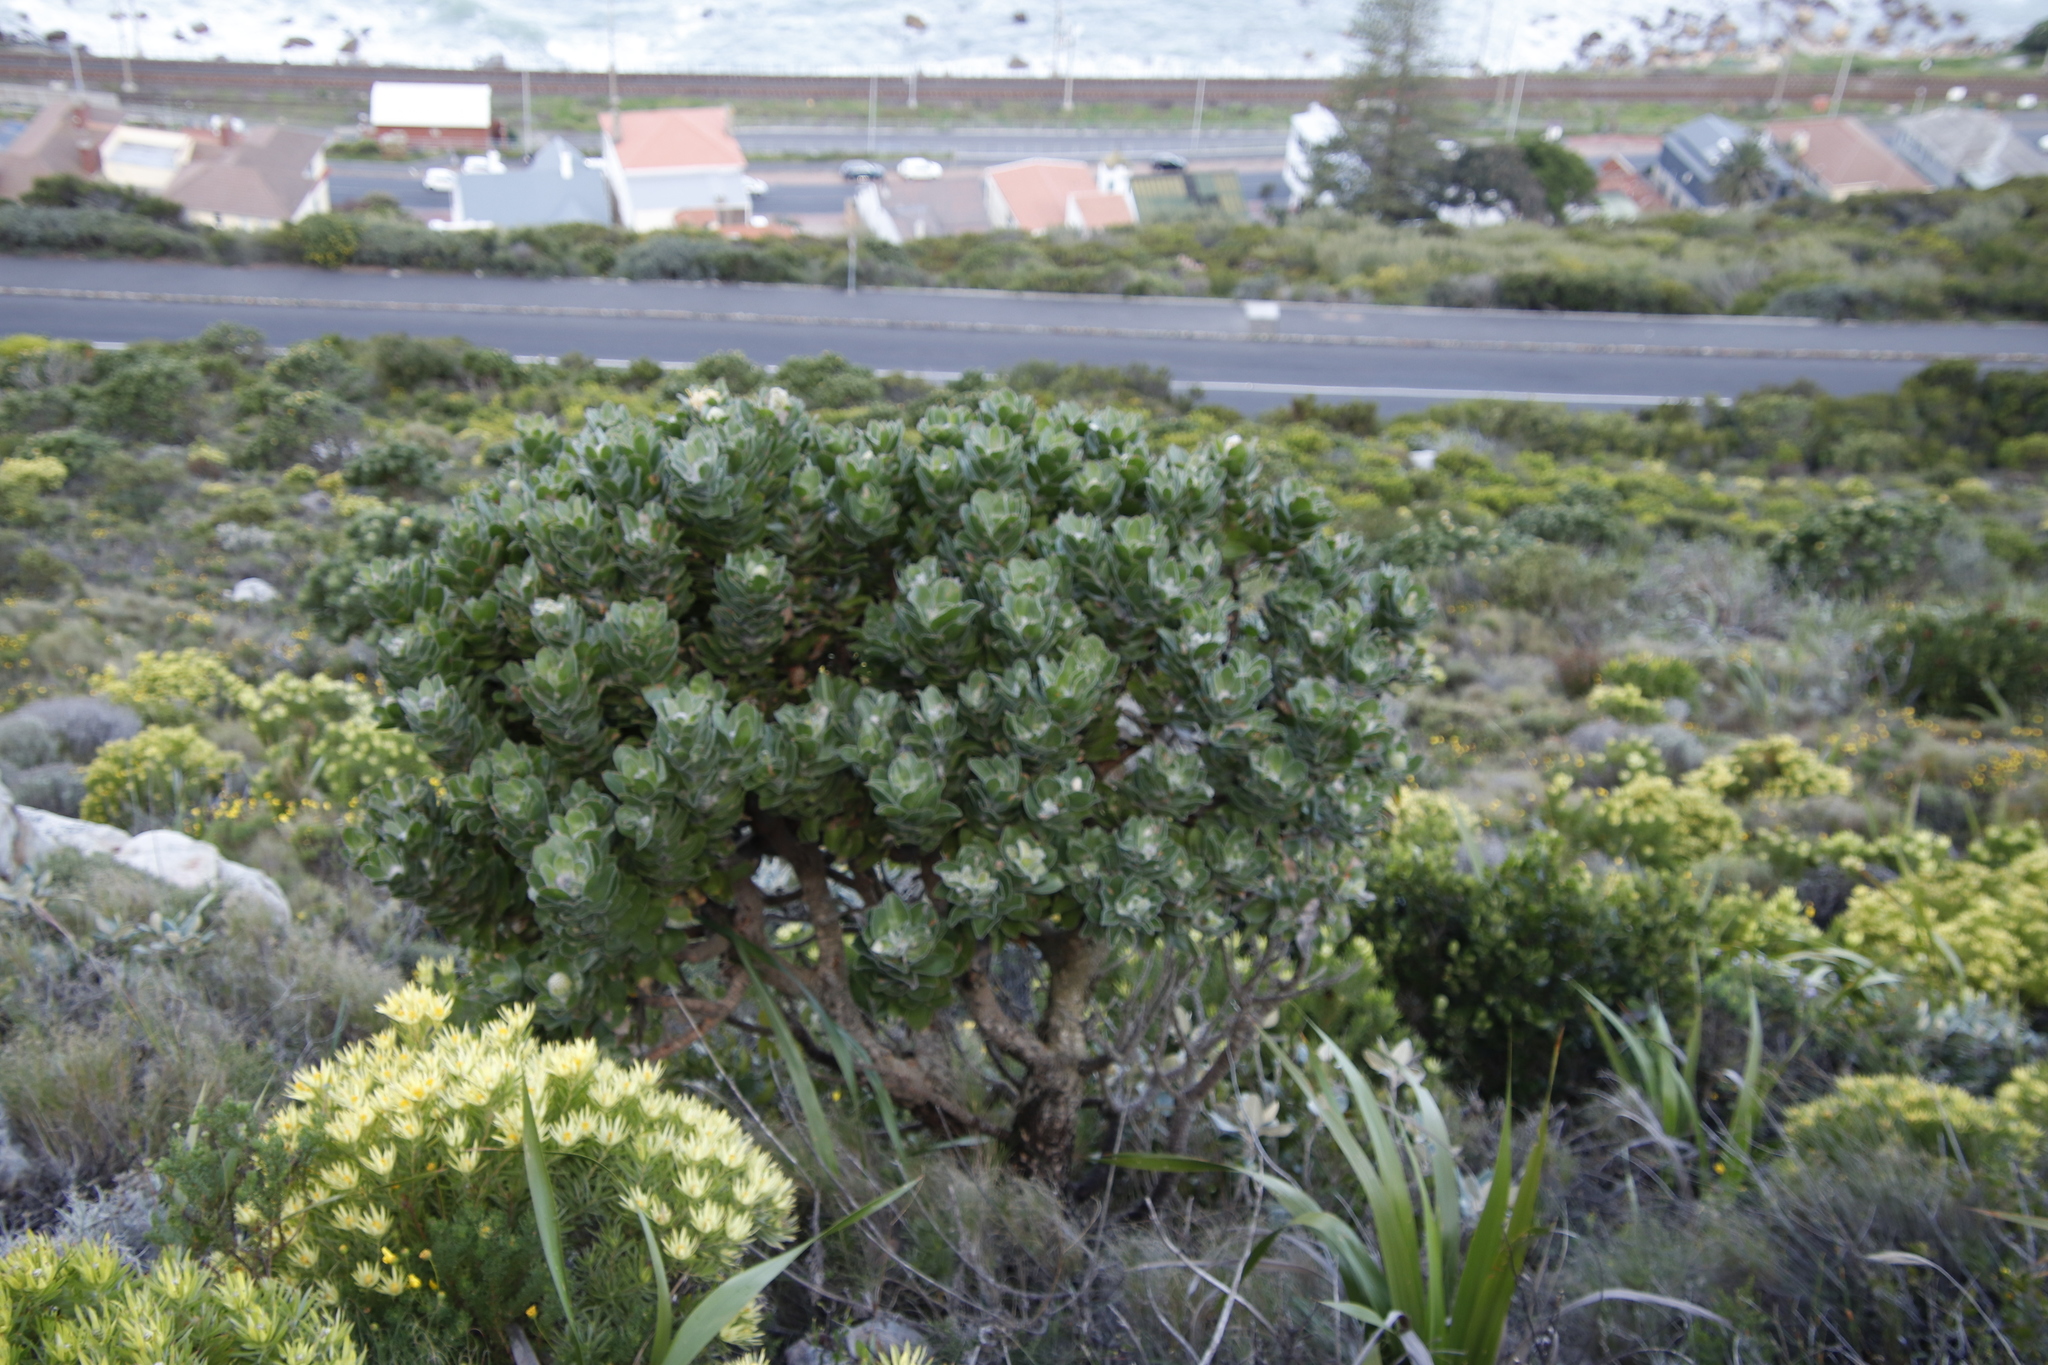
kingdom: Plantae
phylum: Tracheophyta
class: Magnoliopsida
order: Proteales
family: Proteaceae
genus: Leucospermum
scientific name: Leucospermum conocarpodendron
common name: Tree pincushion
